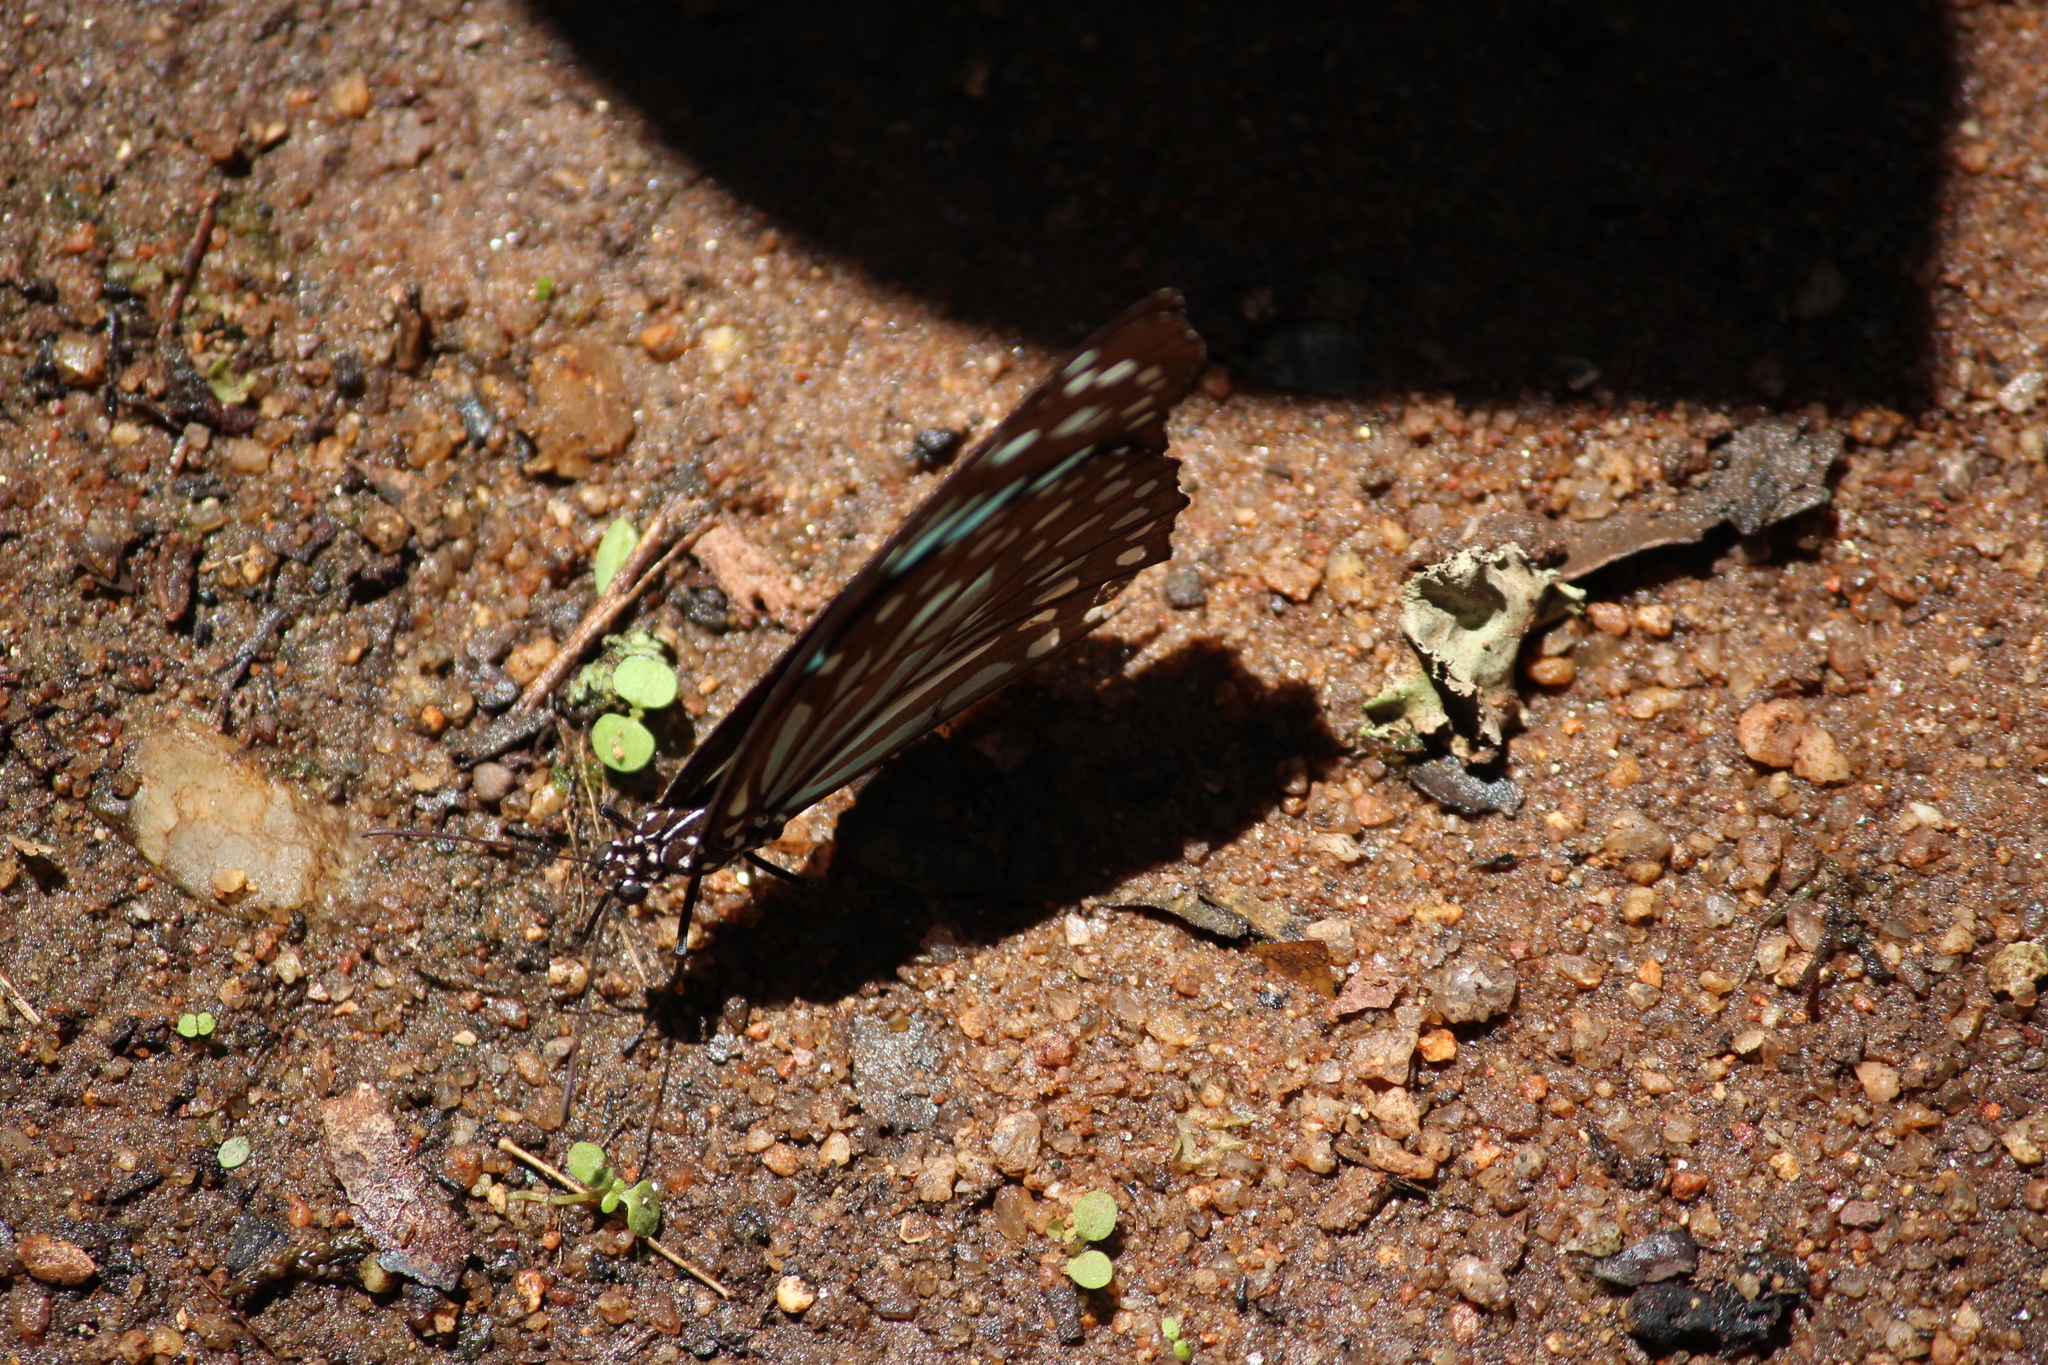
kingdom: Animalia
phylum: Arthropoda
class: Insecta
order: Lepidoptera
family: Nymphalidae
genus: Tirumala
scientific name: Tirumala septentrionis
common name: Dark blue tiger butterfly
